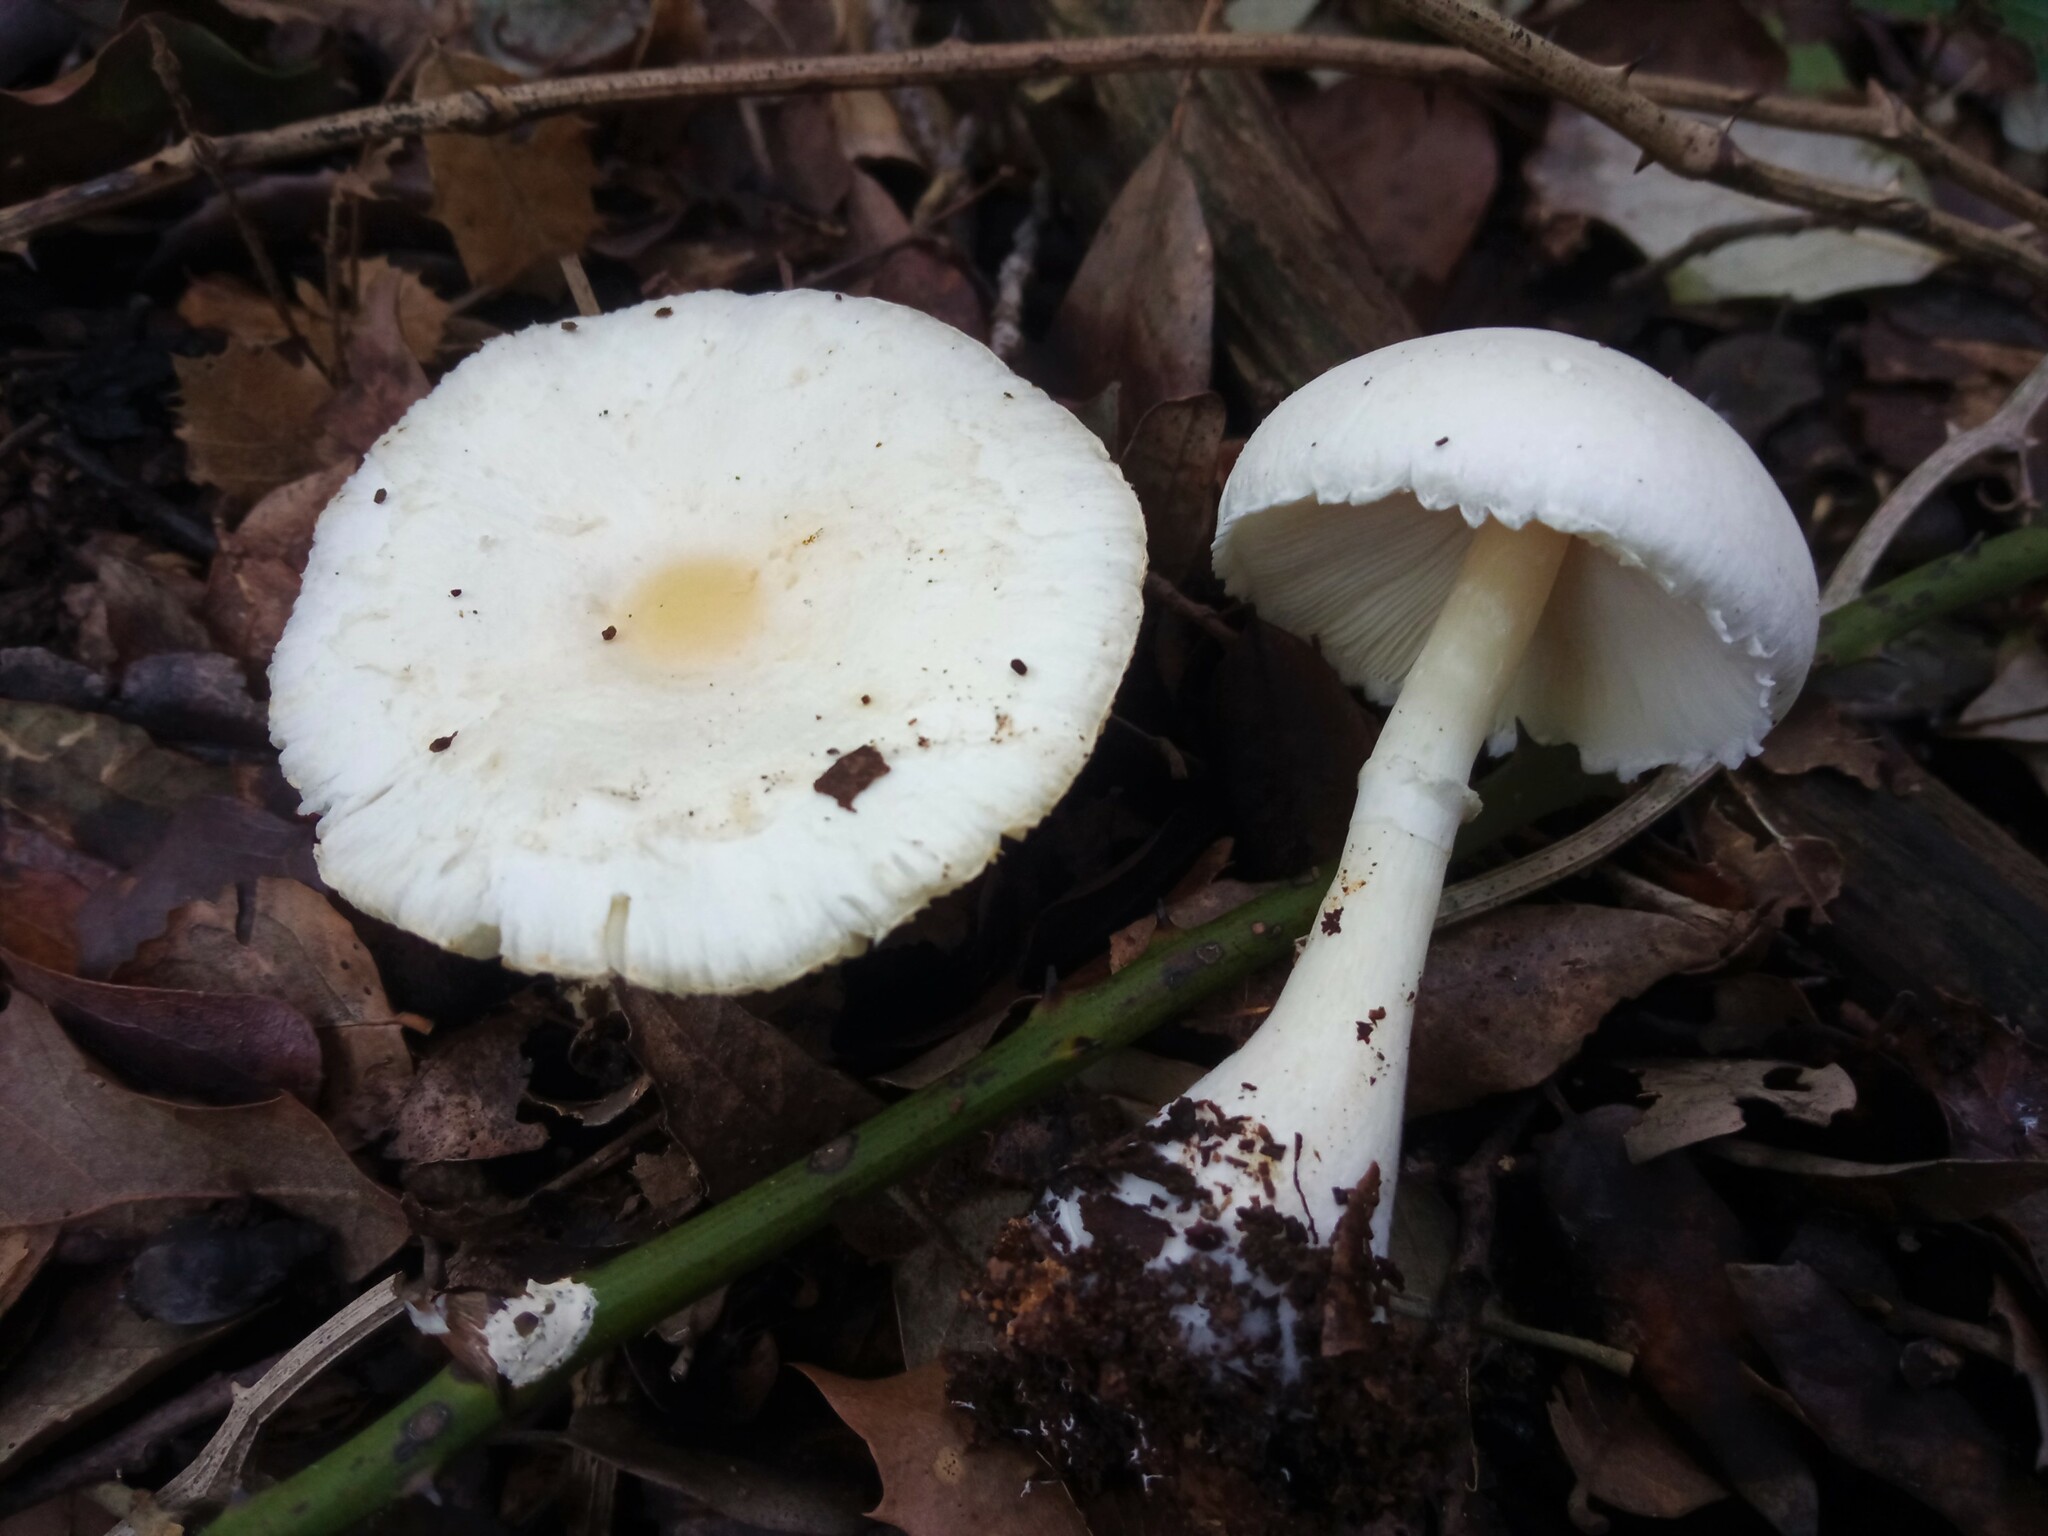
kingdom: Fungi
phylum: Basidiomycota
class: Agaricomycetes
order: Agaricales
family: Agaricaceae
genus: Leucoagaricus
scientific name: Leucoagaricus crystallifer
